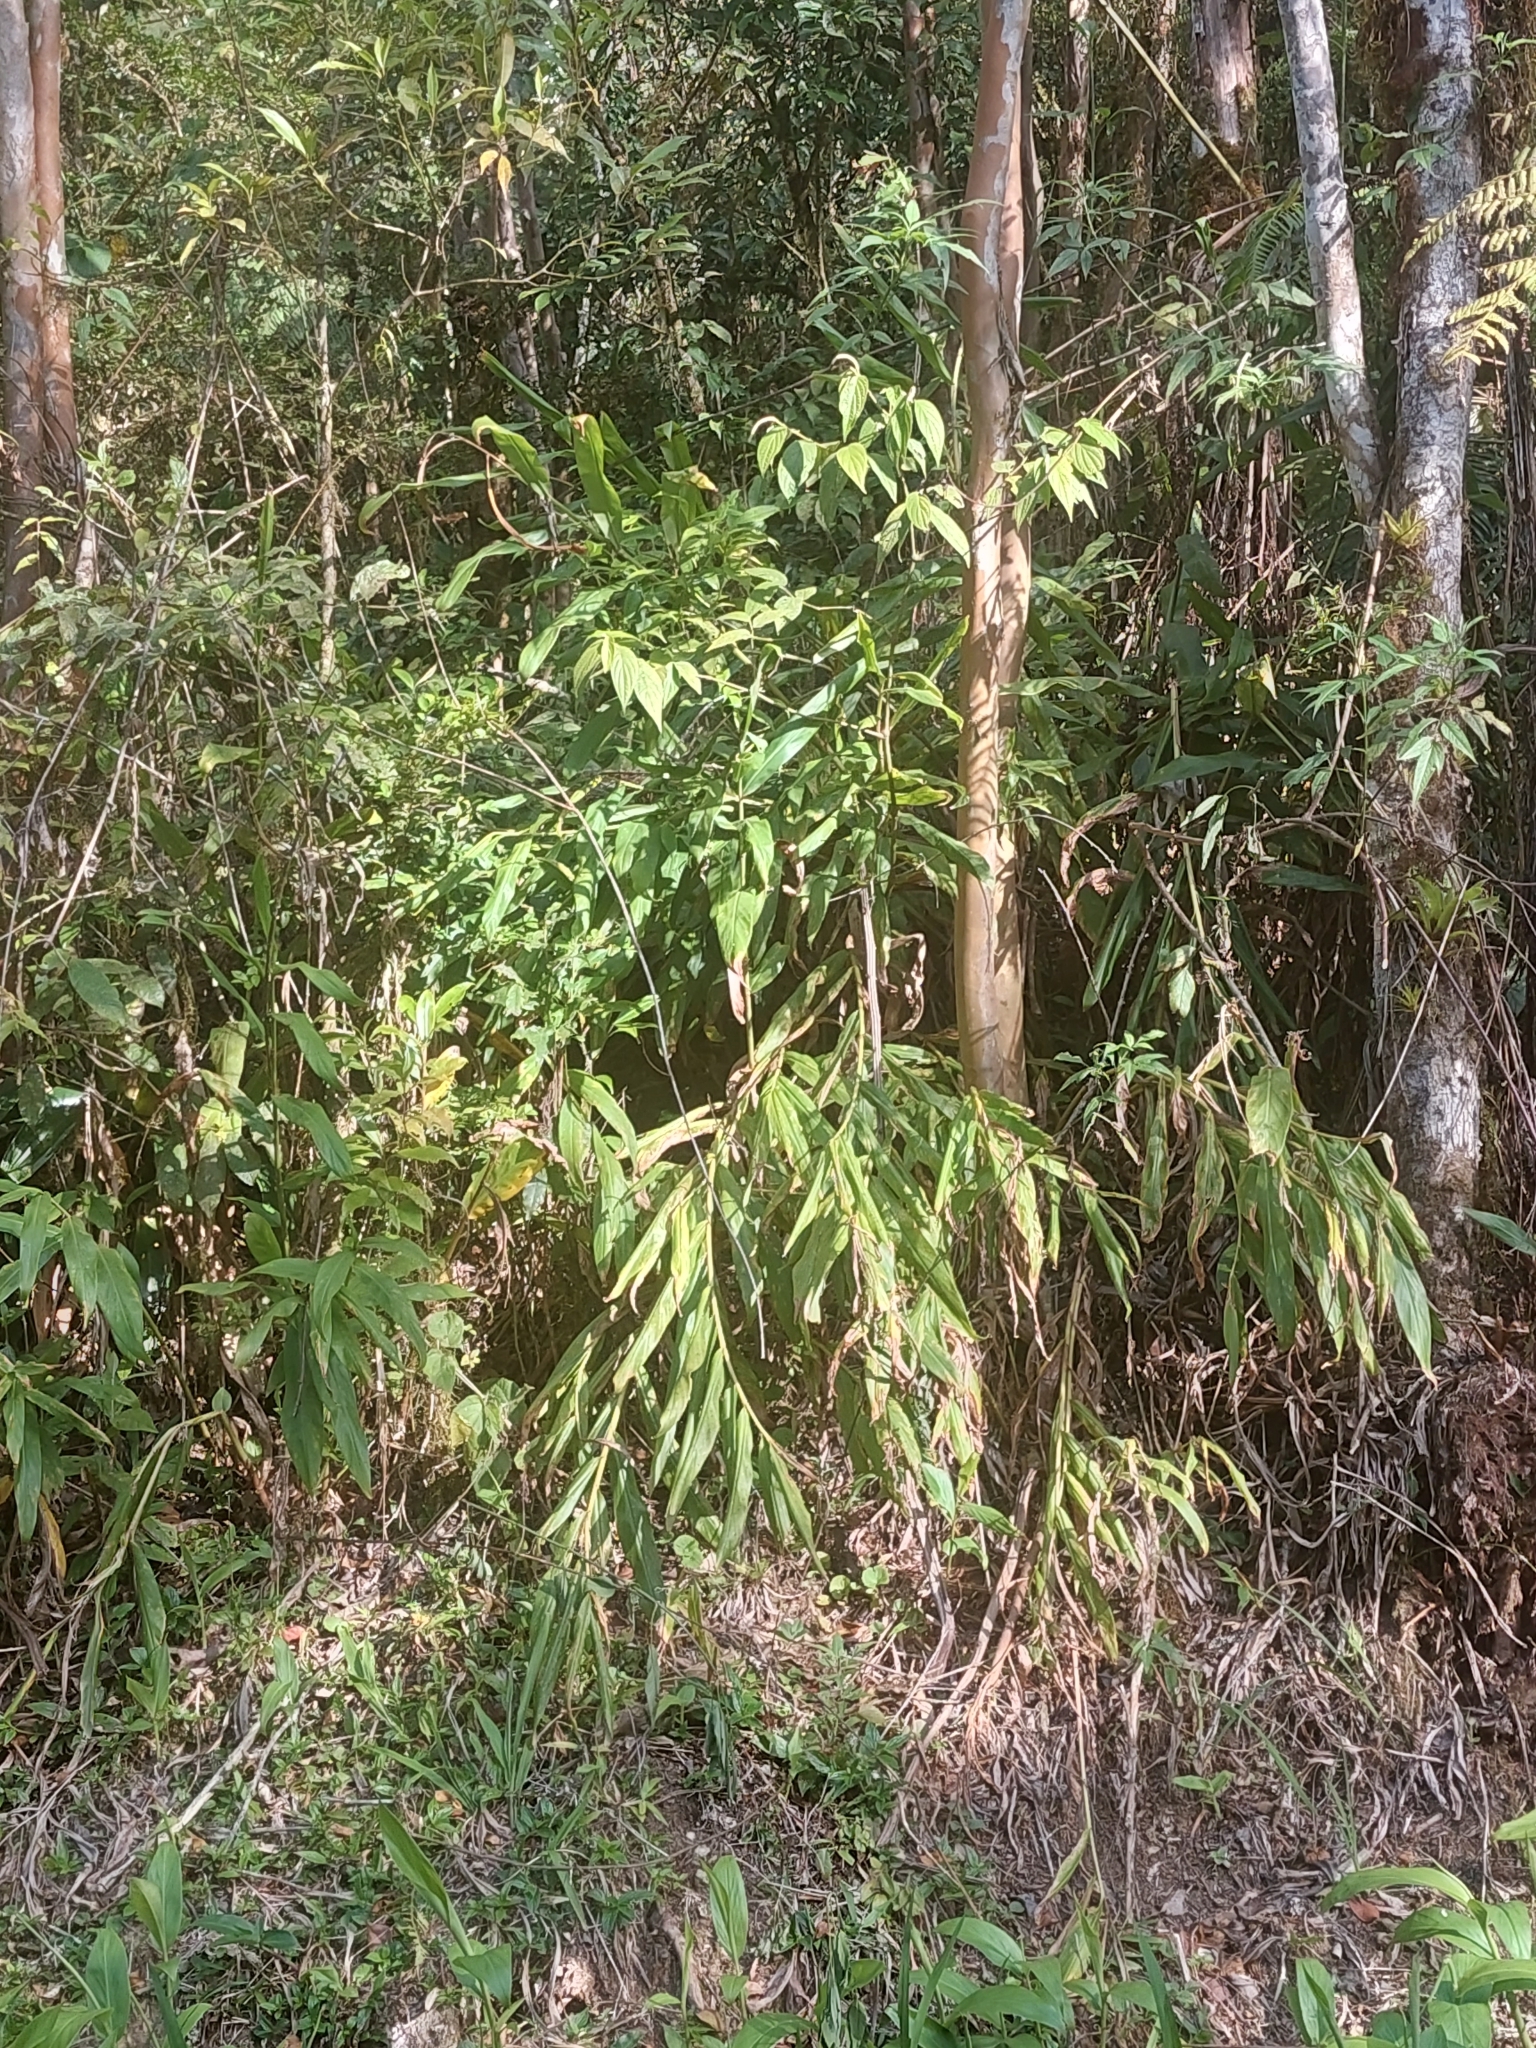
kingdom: Plantae
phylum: Tracheophyta
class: Liliopsida
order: Zingiberales
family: Zingiberaceae
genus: Hedychium
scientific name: Hedychium coronarium
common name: White garland-lily
